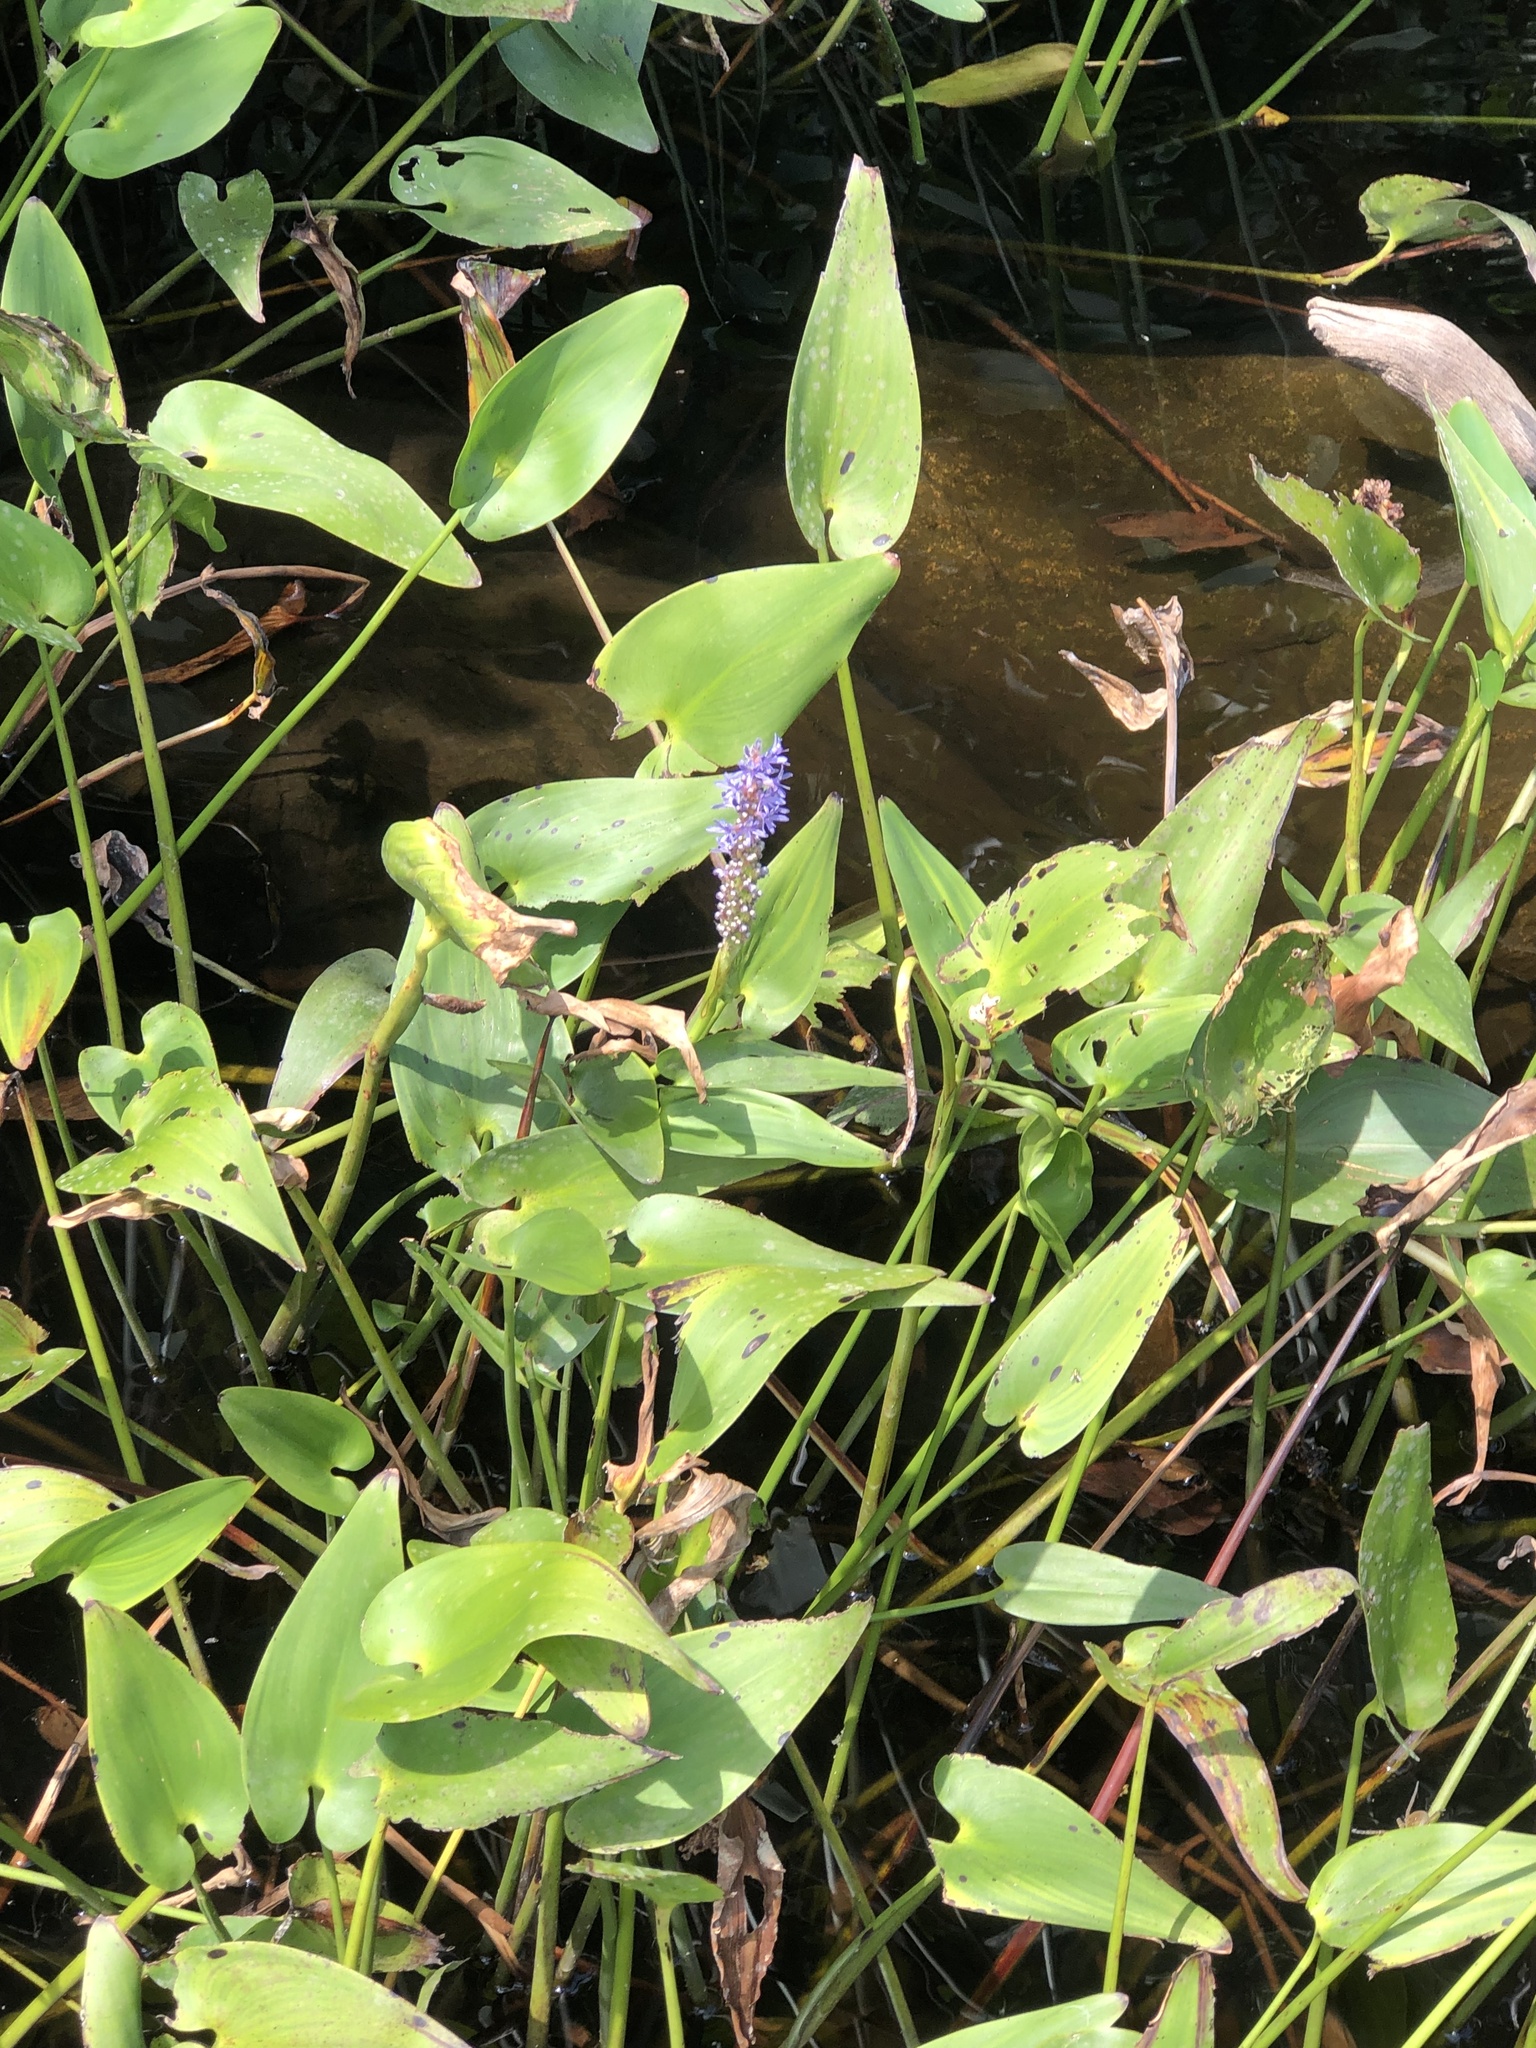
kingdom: Plantae
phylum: Tracheophyta
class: Liliopsida
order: Commelinales
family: Pontederiaceae
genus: Pontederia
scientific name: Pontederia cordata
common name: Pickerelweed
